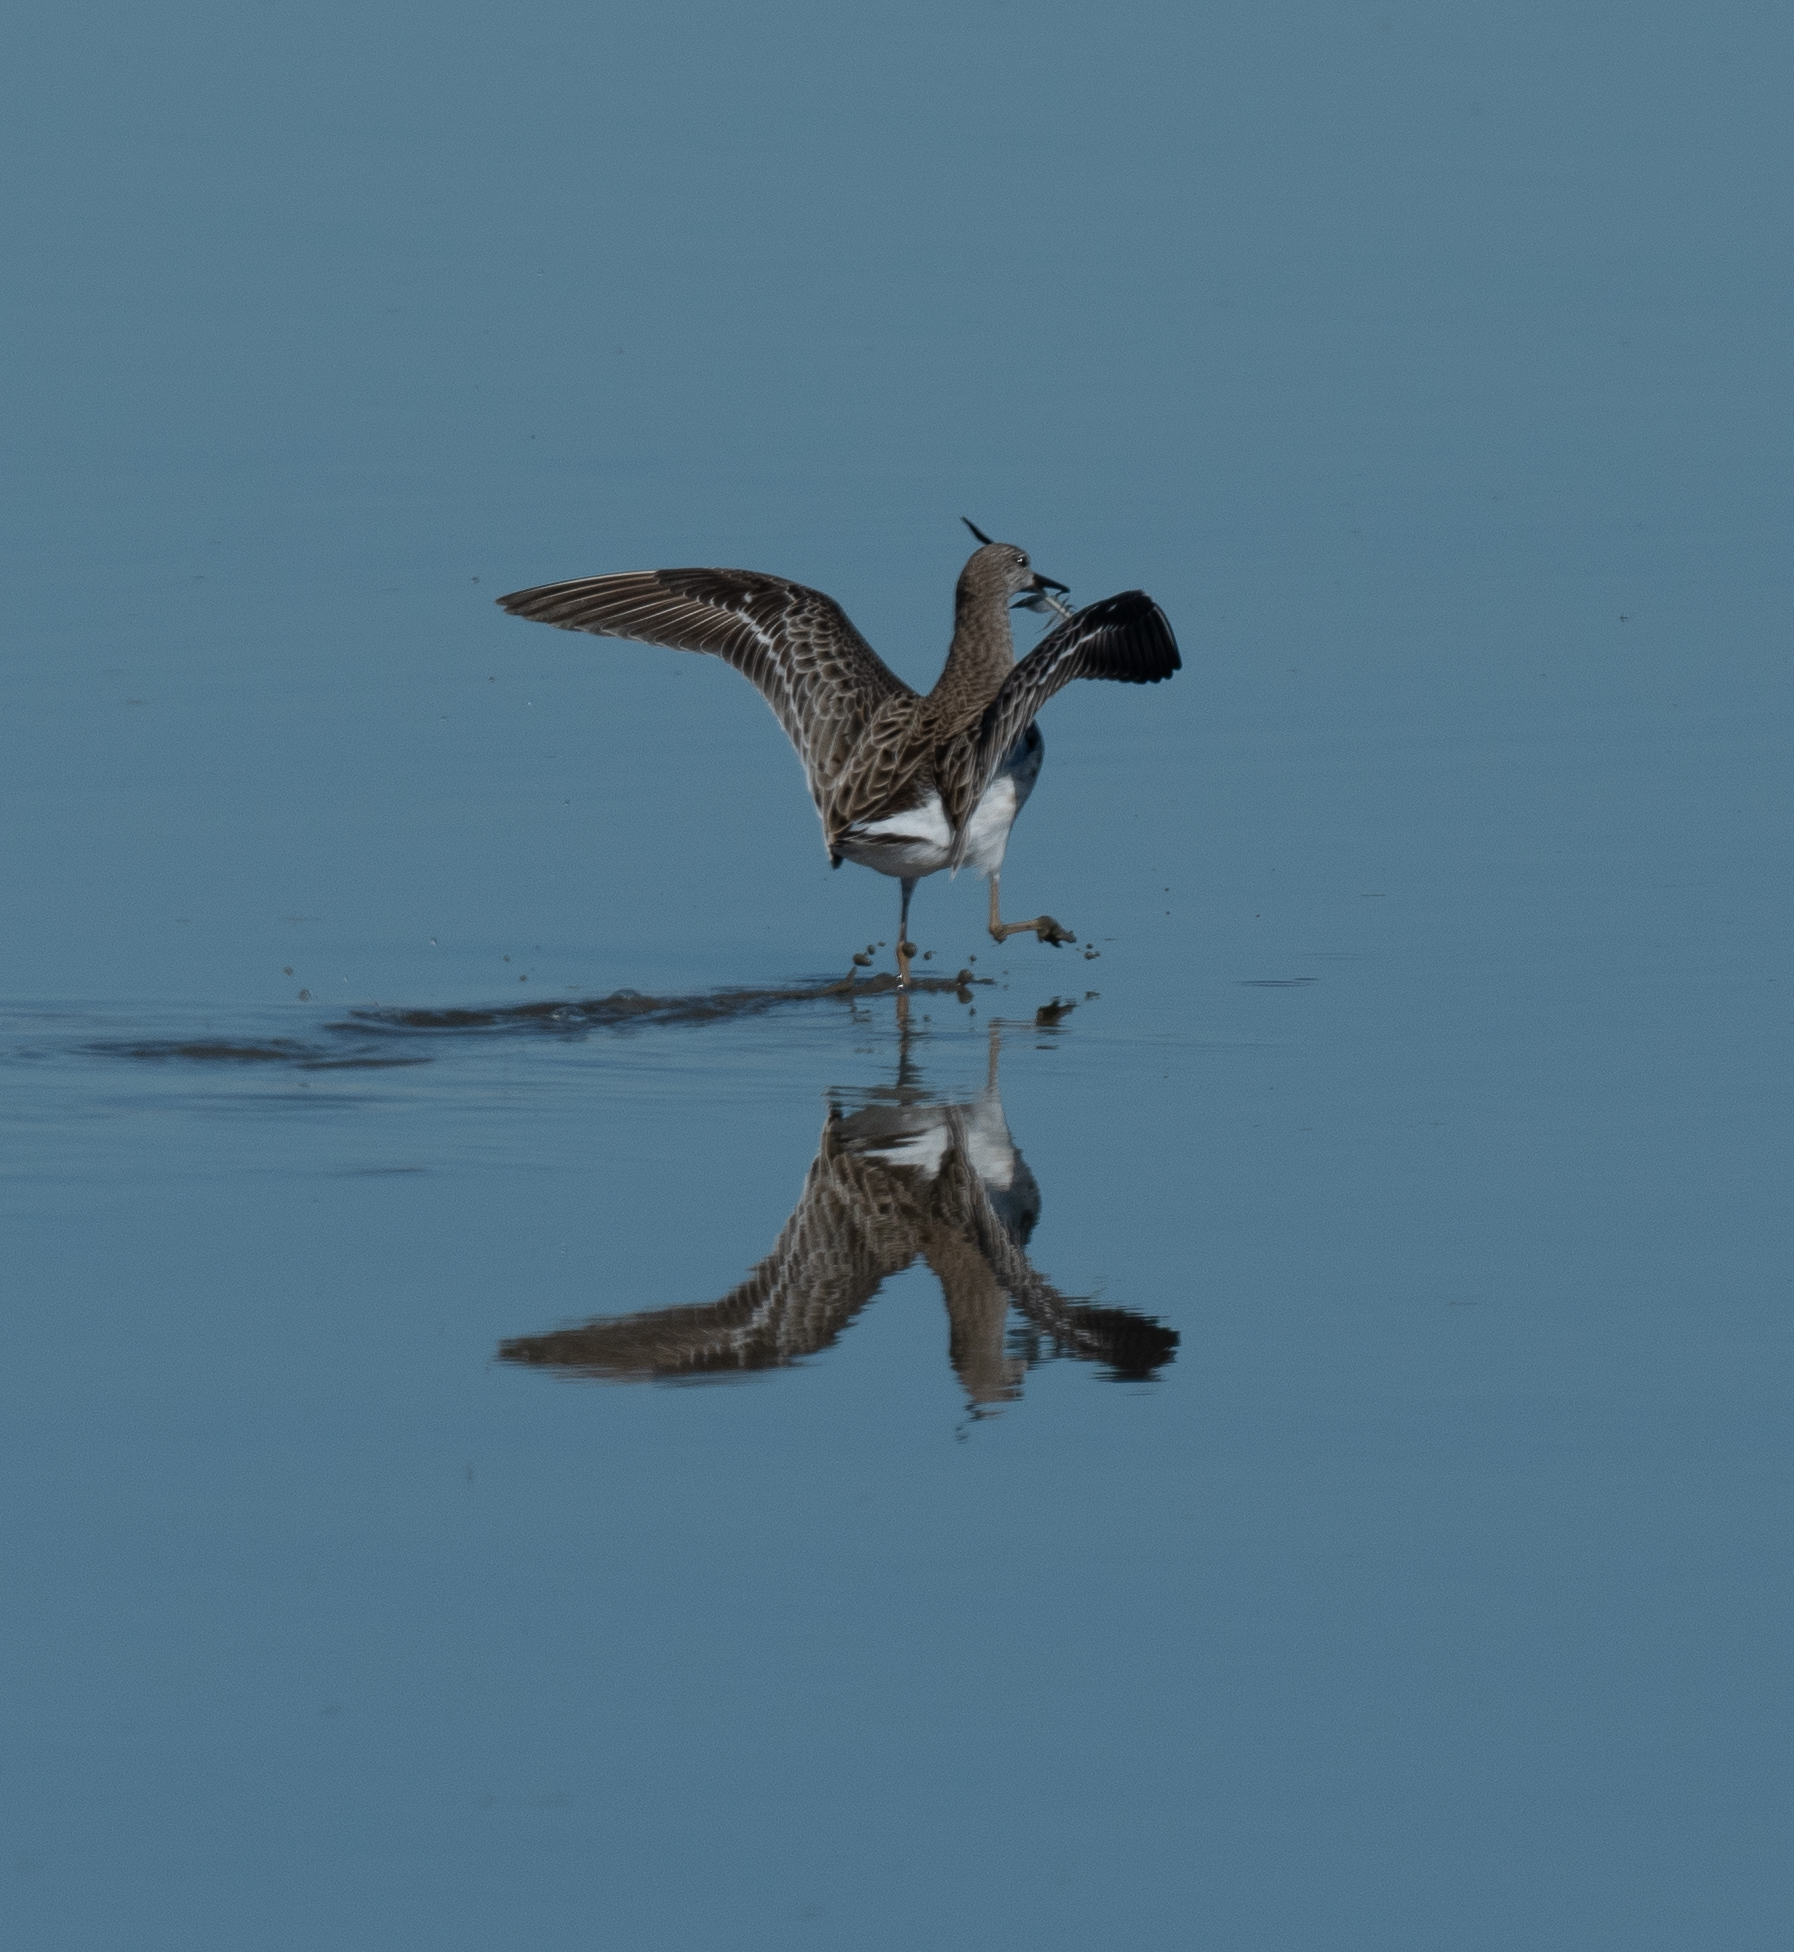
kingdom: Animalia
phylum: Chordata
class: Aves
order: Charadriiformes
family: Scolopacidae
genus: Calidris
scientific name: Calidris pugnax
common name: Ruff
